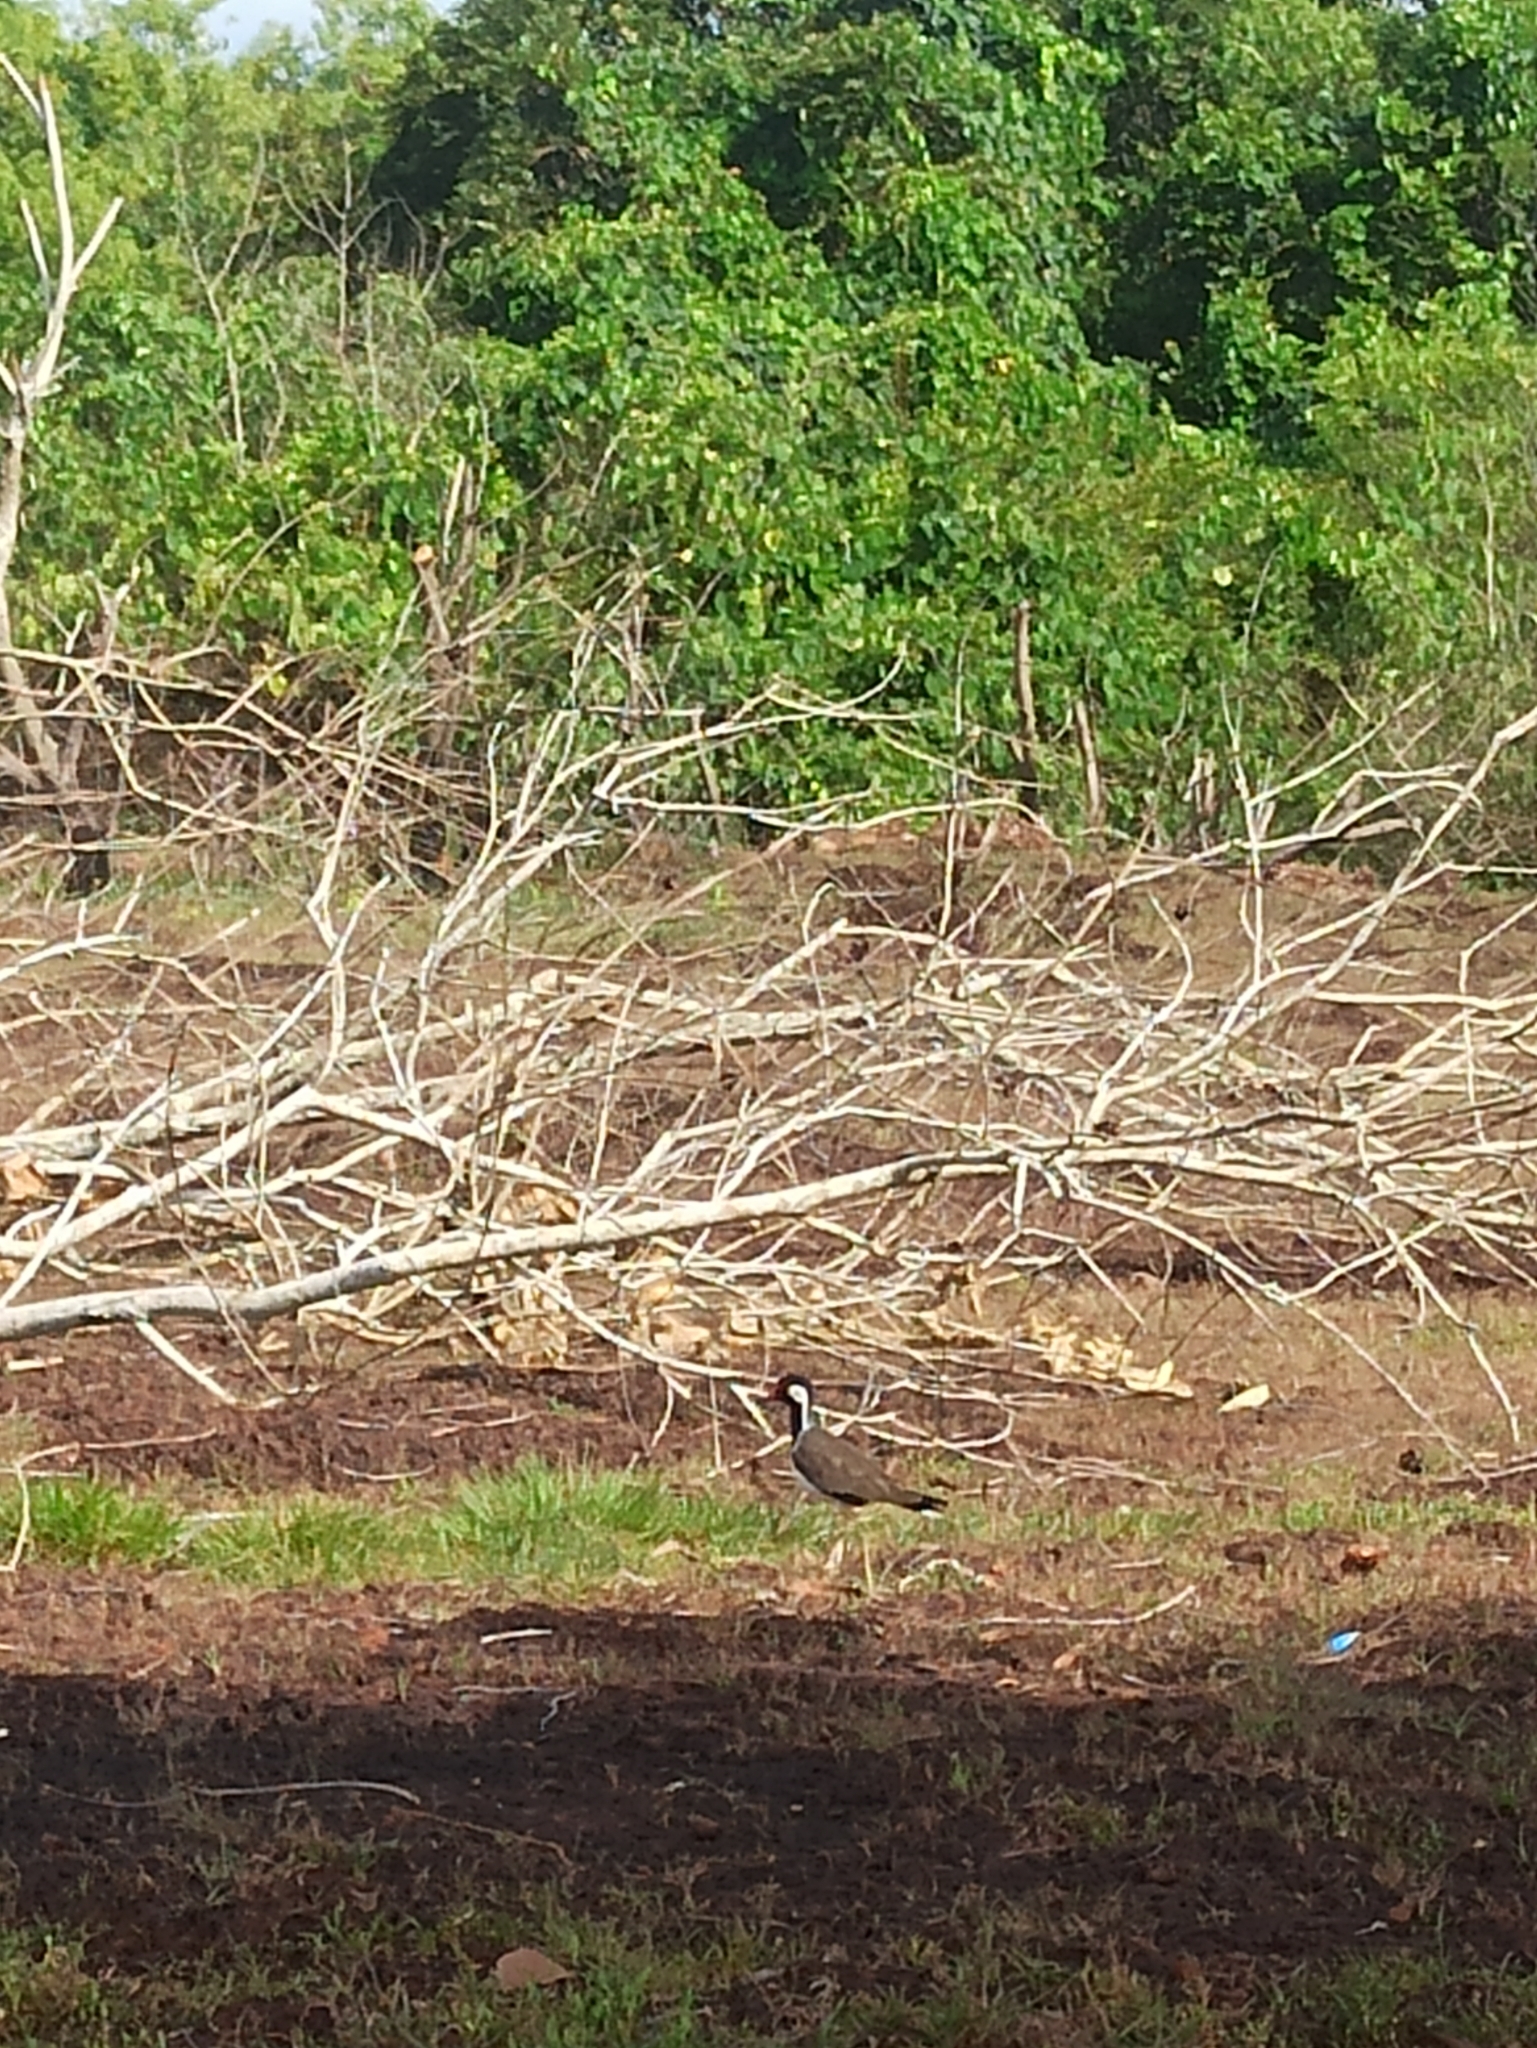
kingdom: Animalia
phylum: Chordata
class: Aves
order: Charadriiformes
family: Charadriidae
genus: Vanellus
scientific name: Vanellus indicus
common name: Red-wattled lapwing
